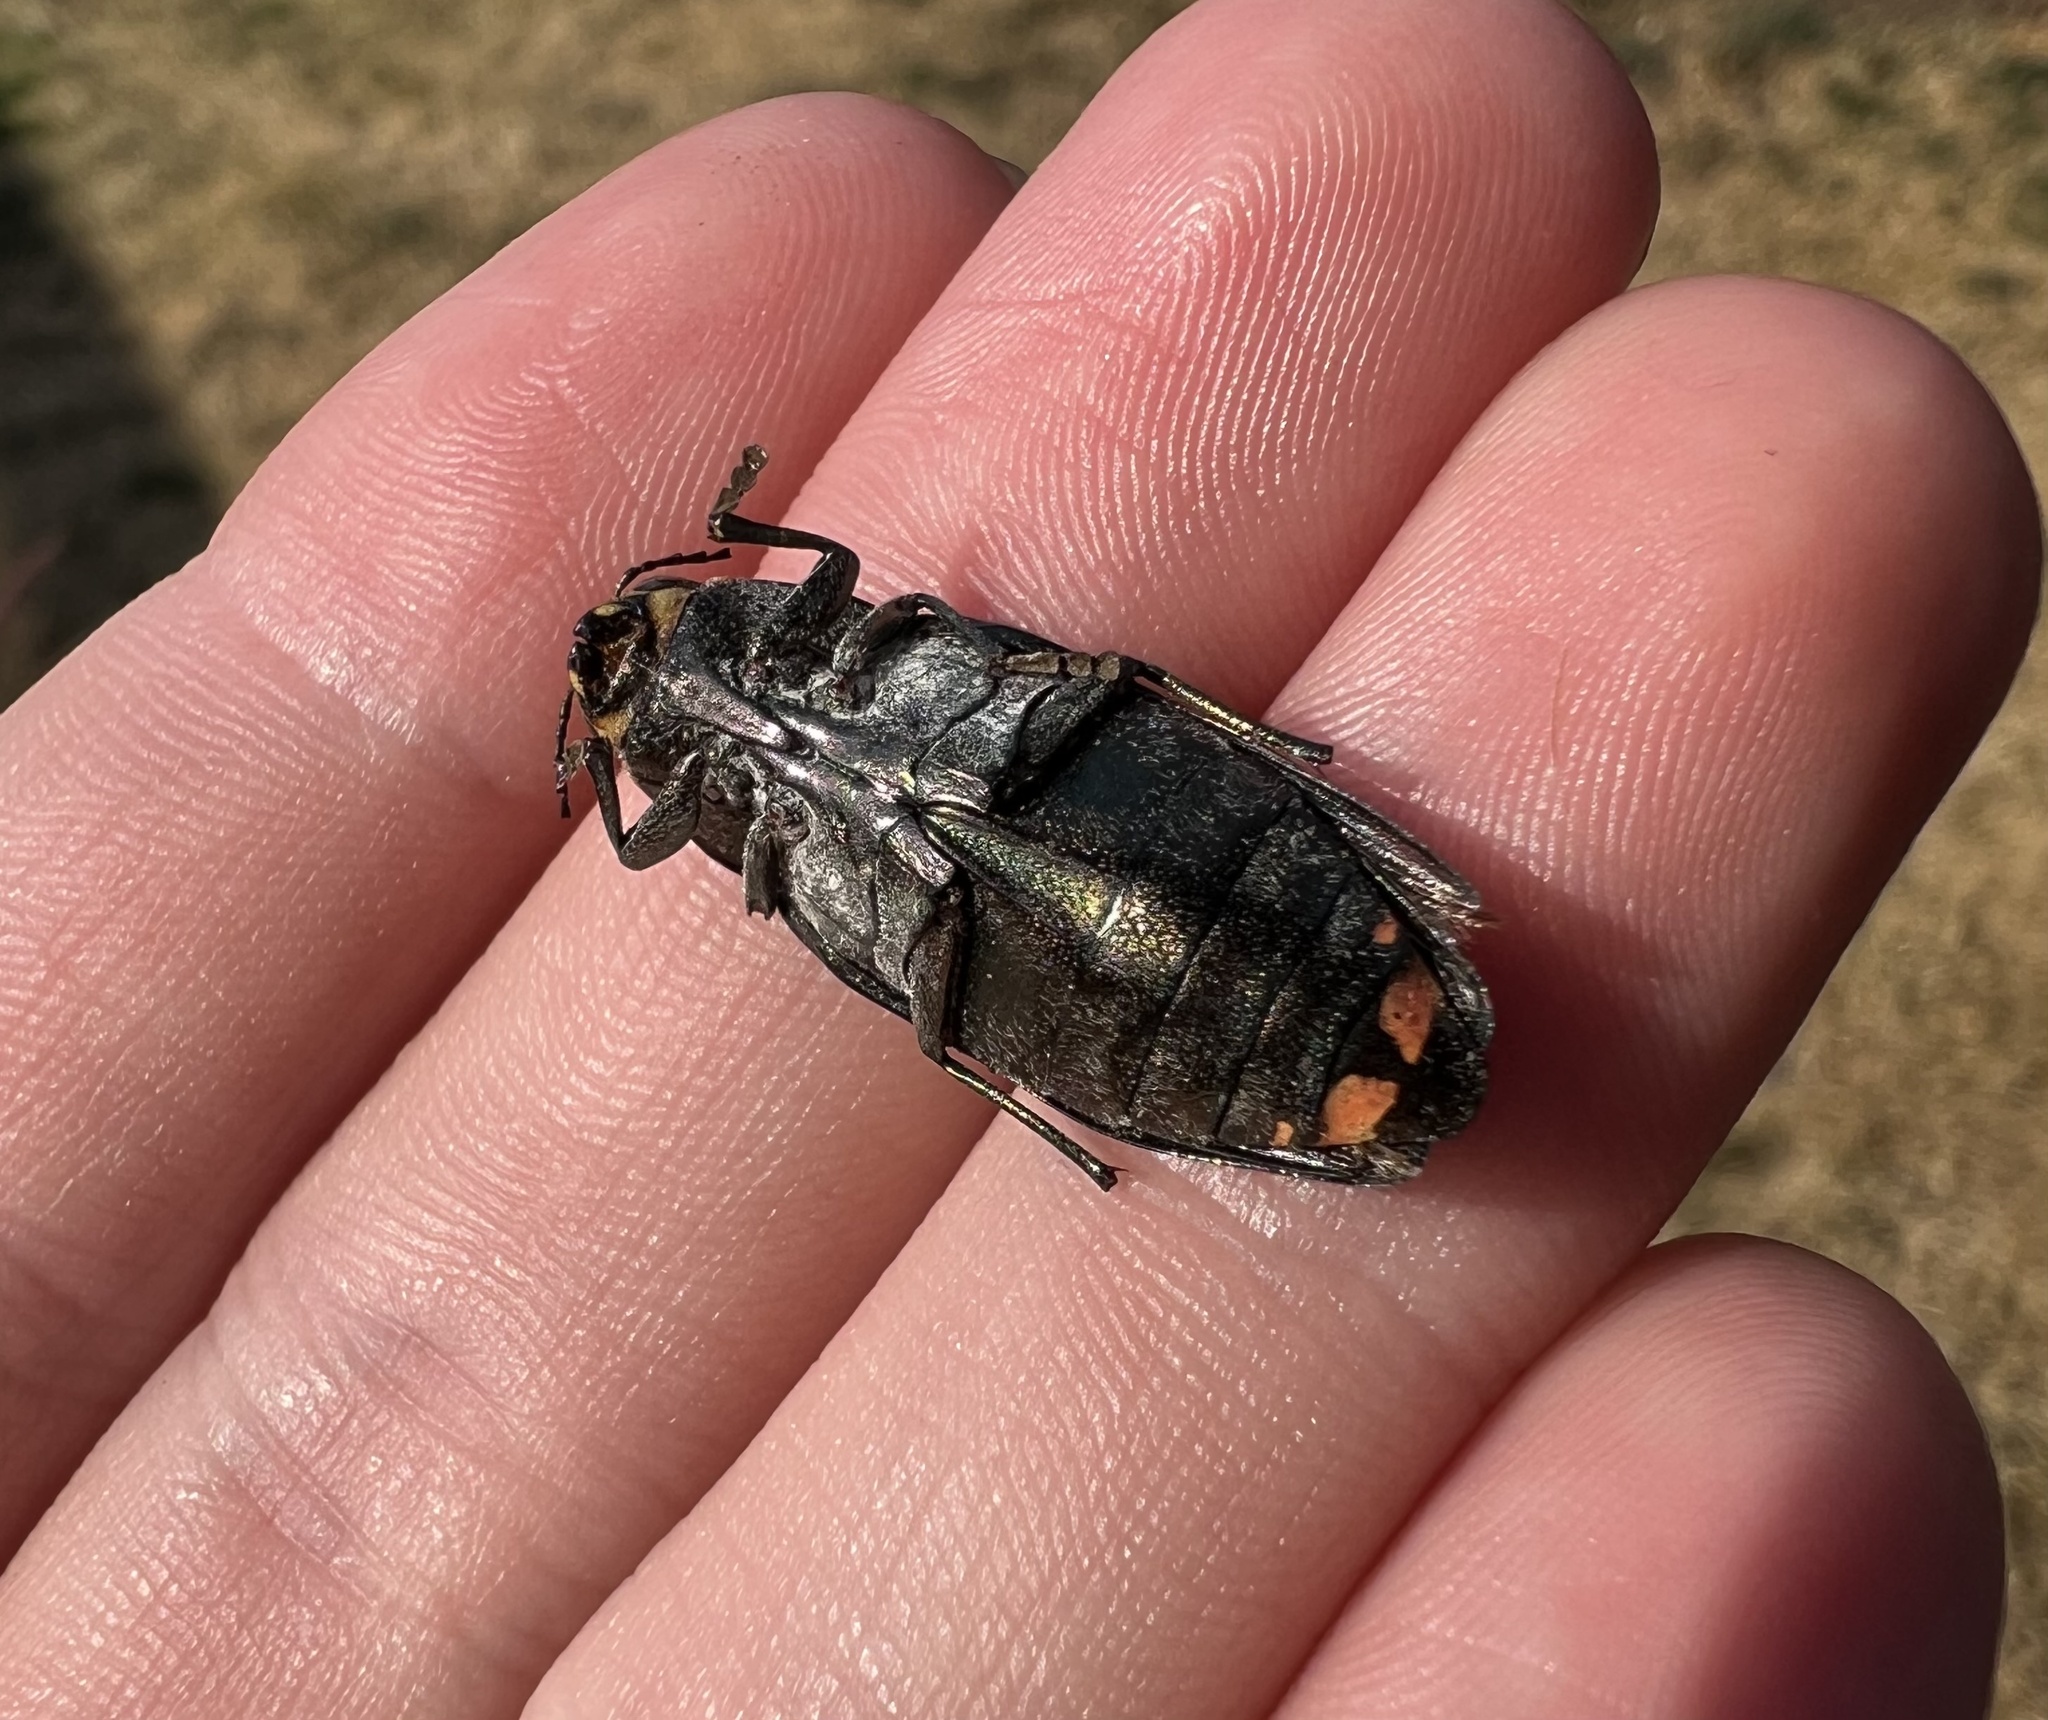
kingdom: Animalia
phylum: Arthropoda
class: Insecta
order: Coleoptera
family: Buprestidae
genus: Buprestis
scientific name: Buprestis lyrata
